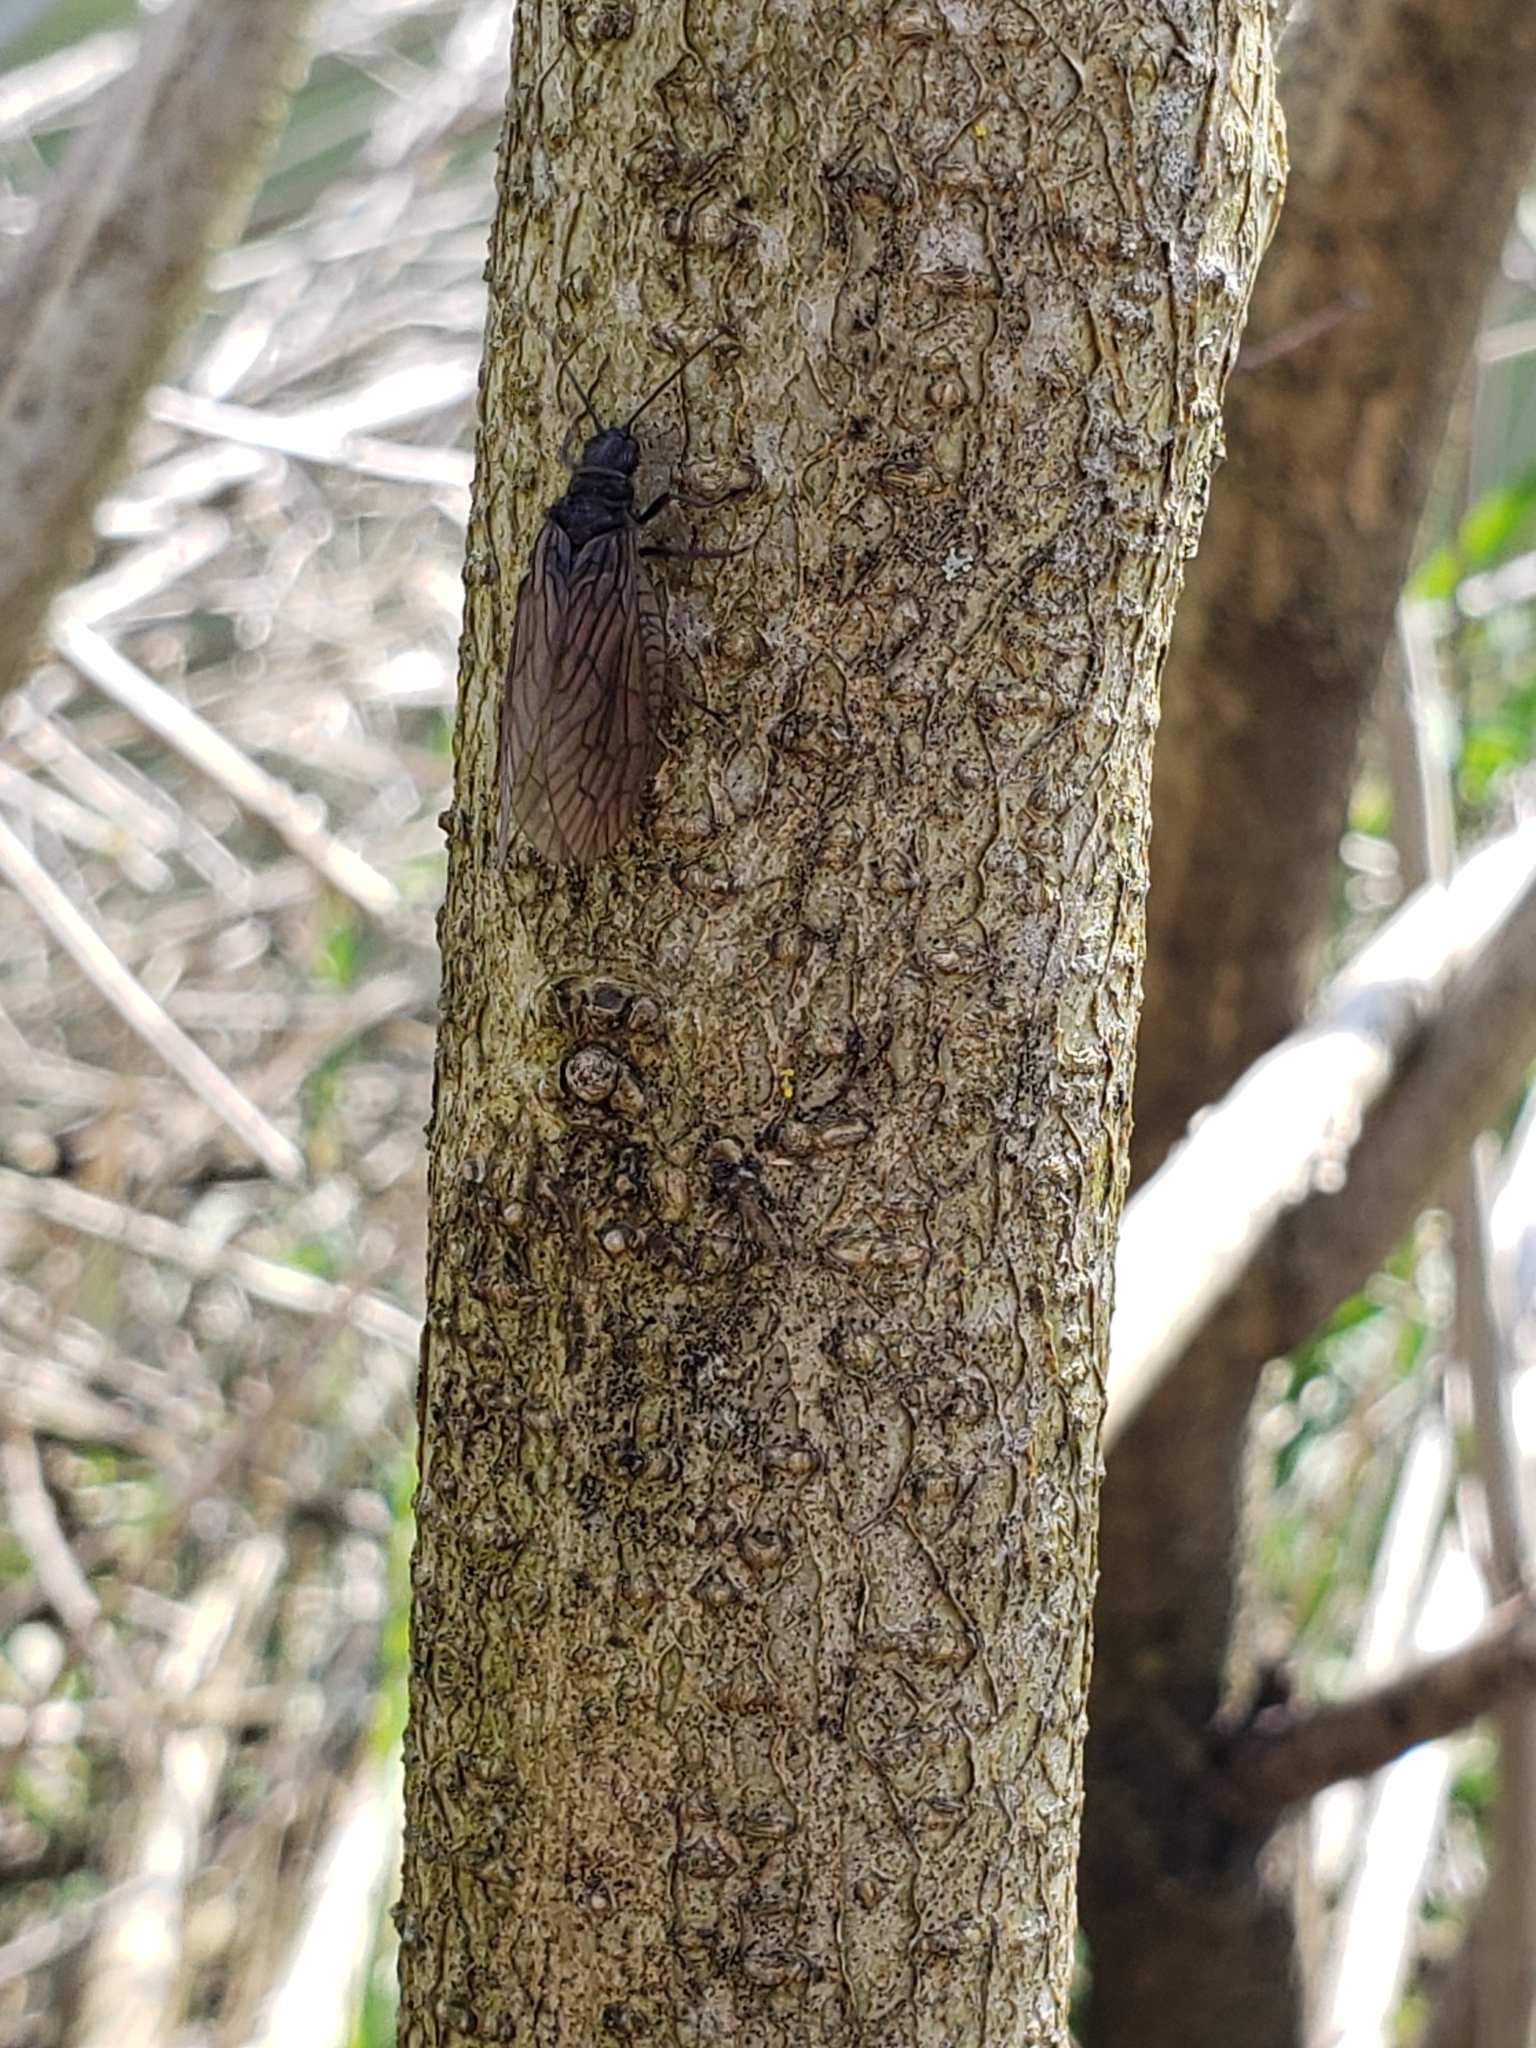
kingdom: Animalia
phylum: Arthropoda
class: Insecta
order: Megaloptera
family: Sialidae
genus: Sialis
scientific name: Sialis
